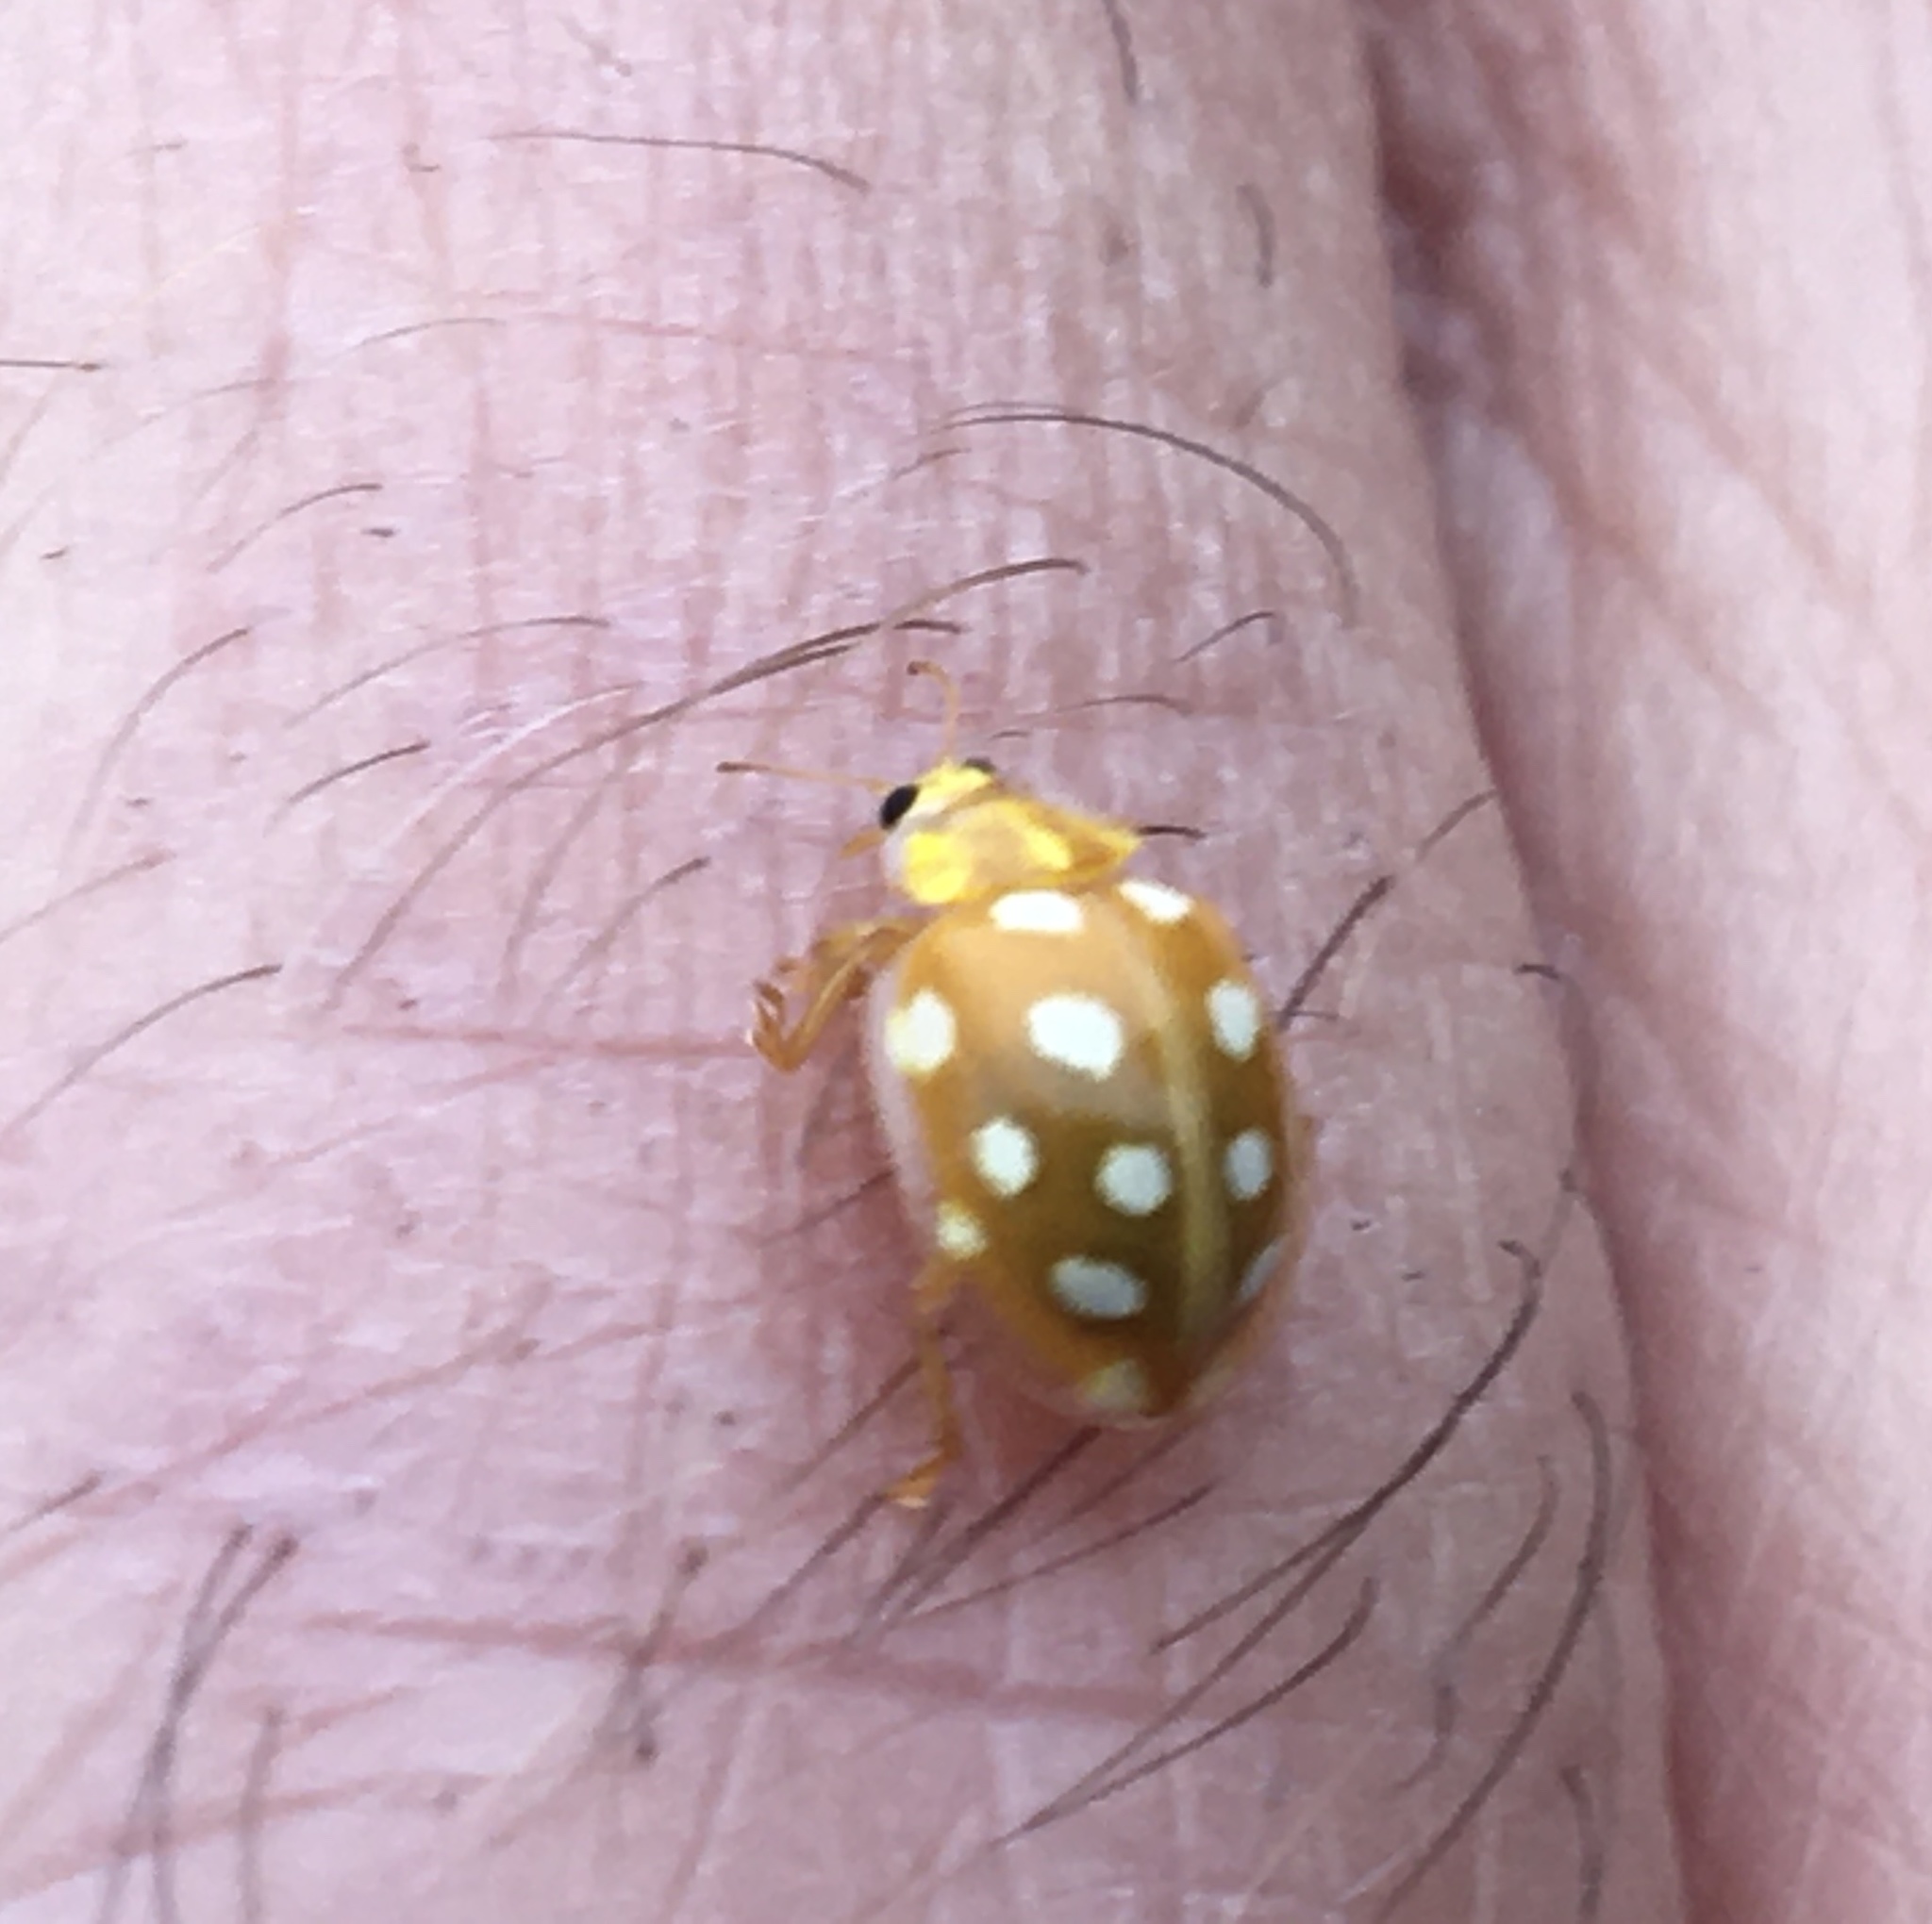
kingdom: Animalia
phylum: Arthropoda
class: Insecta
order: Coleoptera
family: Coccinellidae
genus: Halyzia
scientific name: Halyzia sedecimguttata
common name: Orange ladybird
